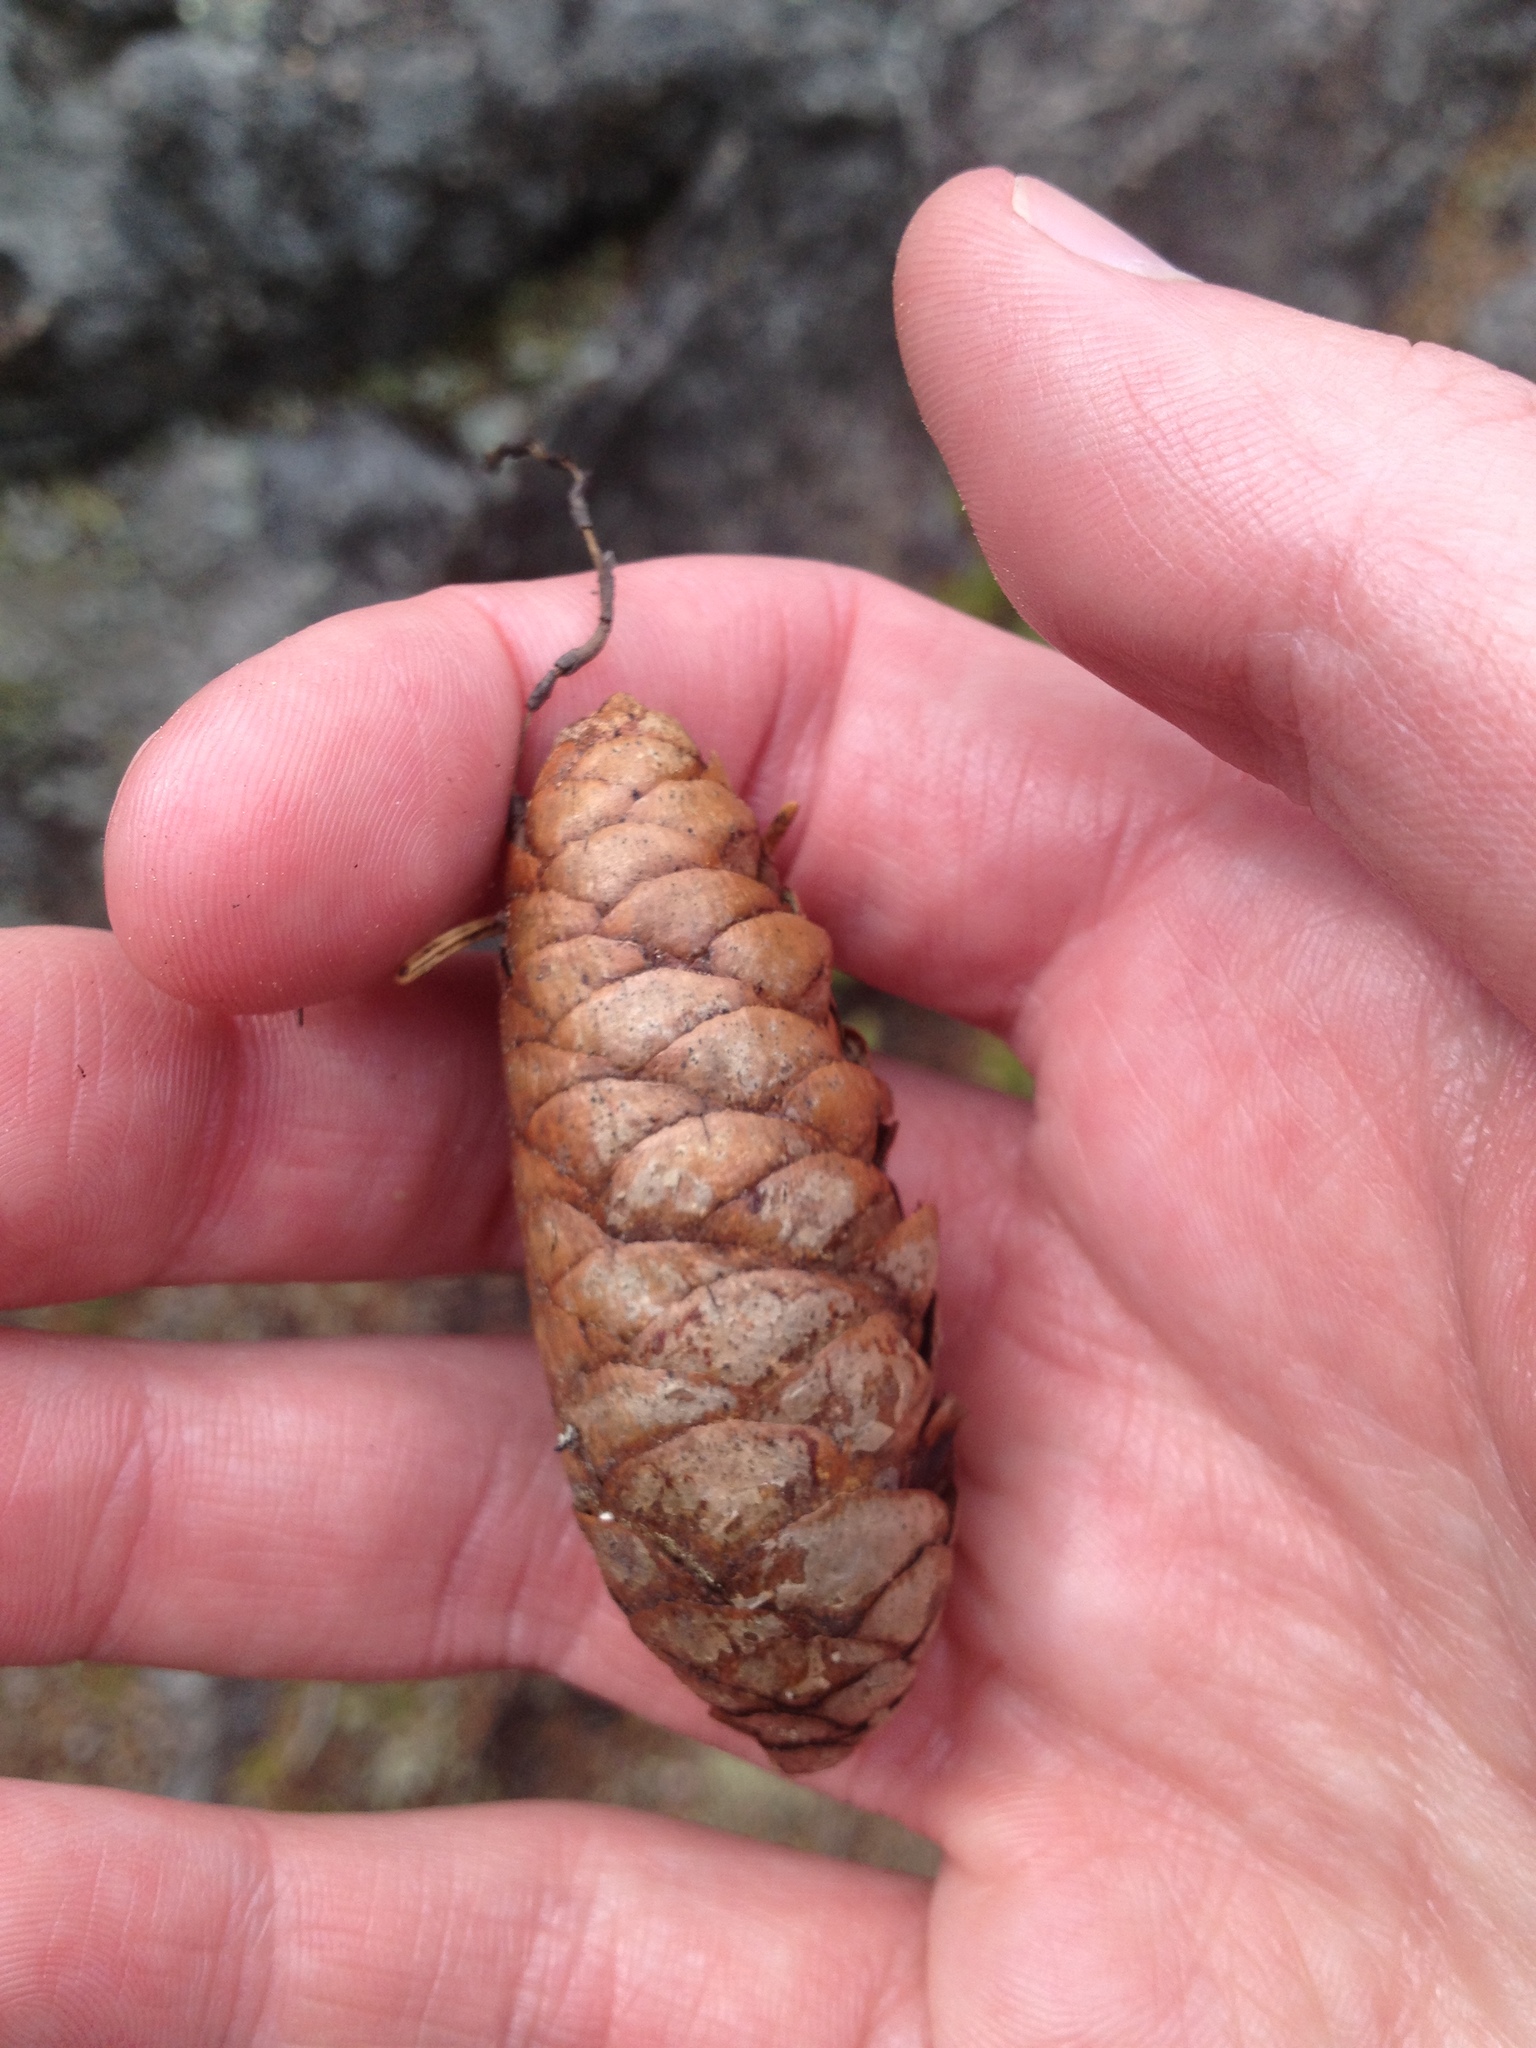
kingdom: Plantae
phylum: Tracheophyta
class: Pinopsida
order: Pinales
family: Pinaceae
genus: Picea
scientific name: Picea glauca
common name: White spruce
